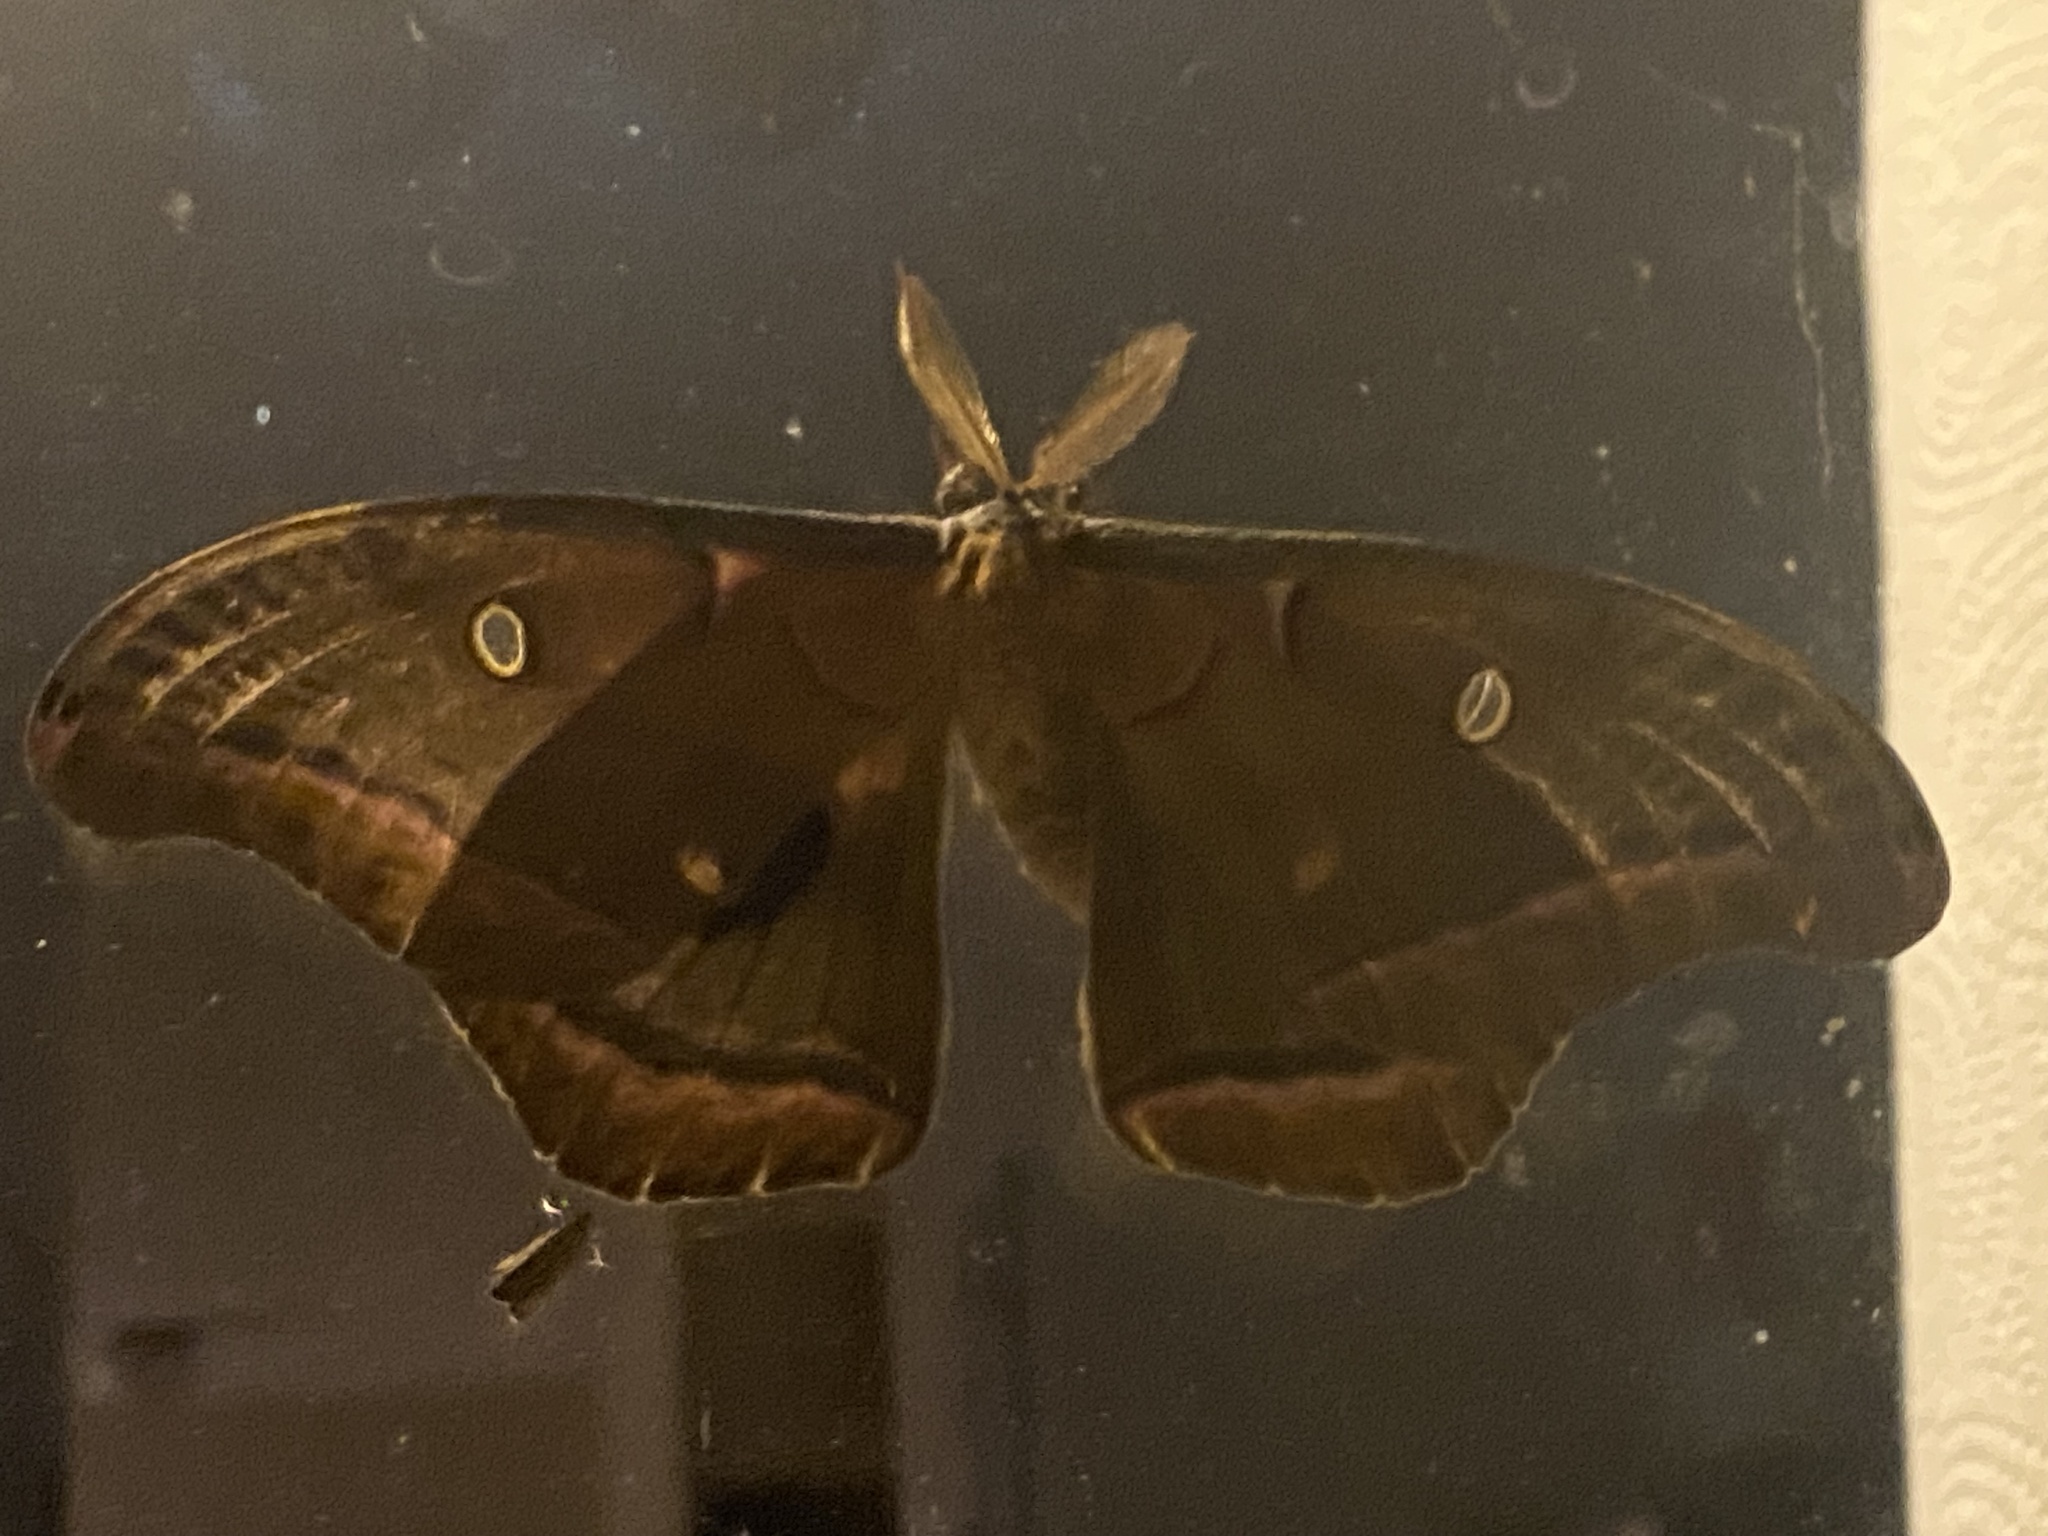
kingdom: Animalia
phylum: Arthropoda
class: Insecta
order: Lepidoptera
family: Saturniidae
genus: Antheraea
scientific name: Antheraea polyphemus
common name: Polyphemus moth
